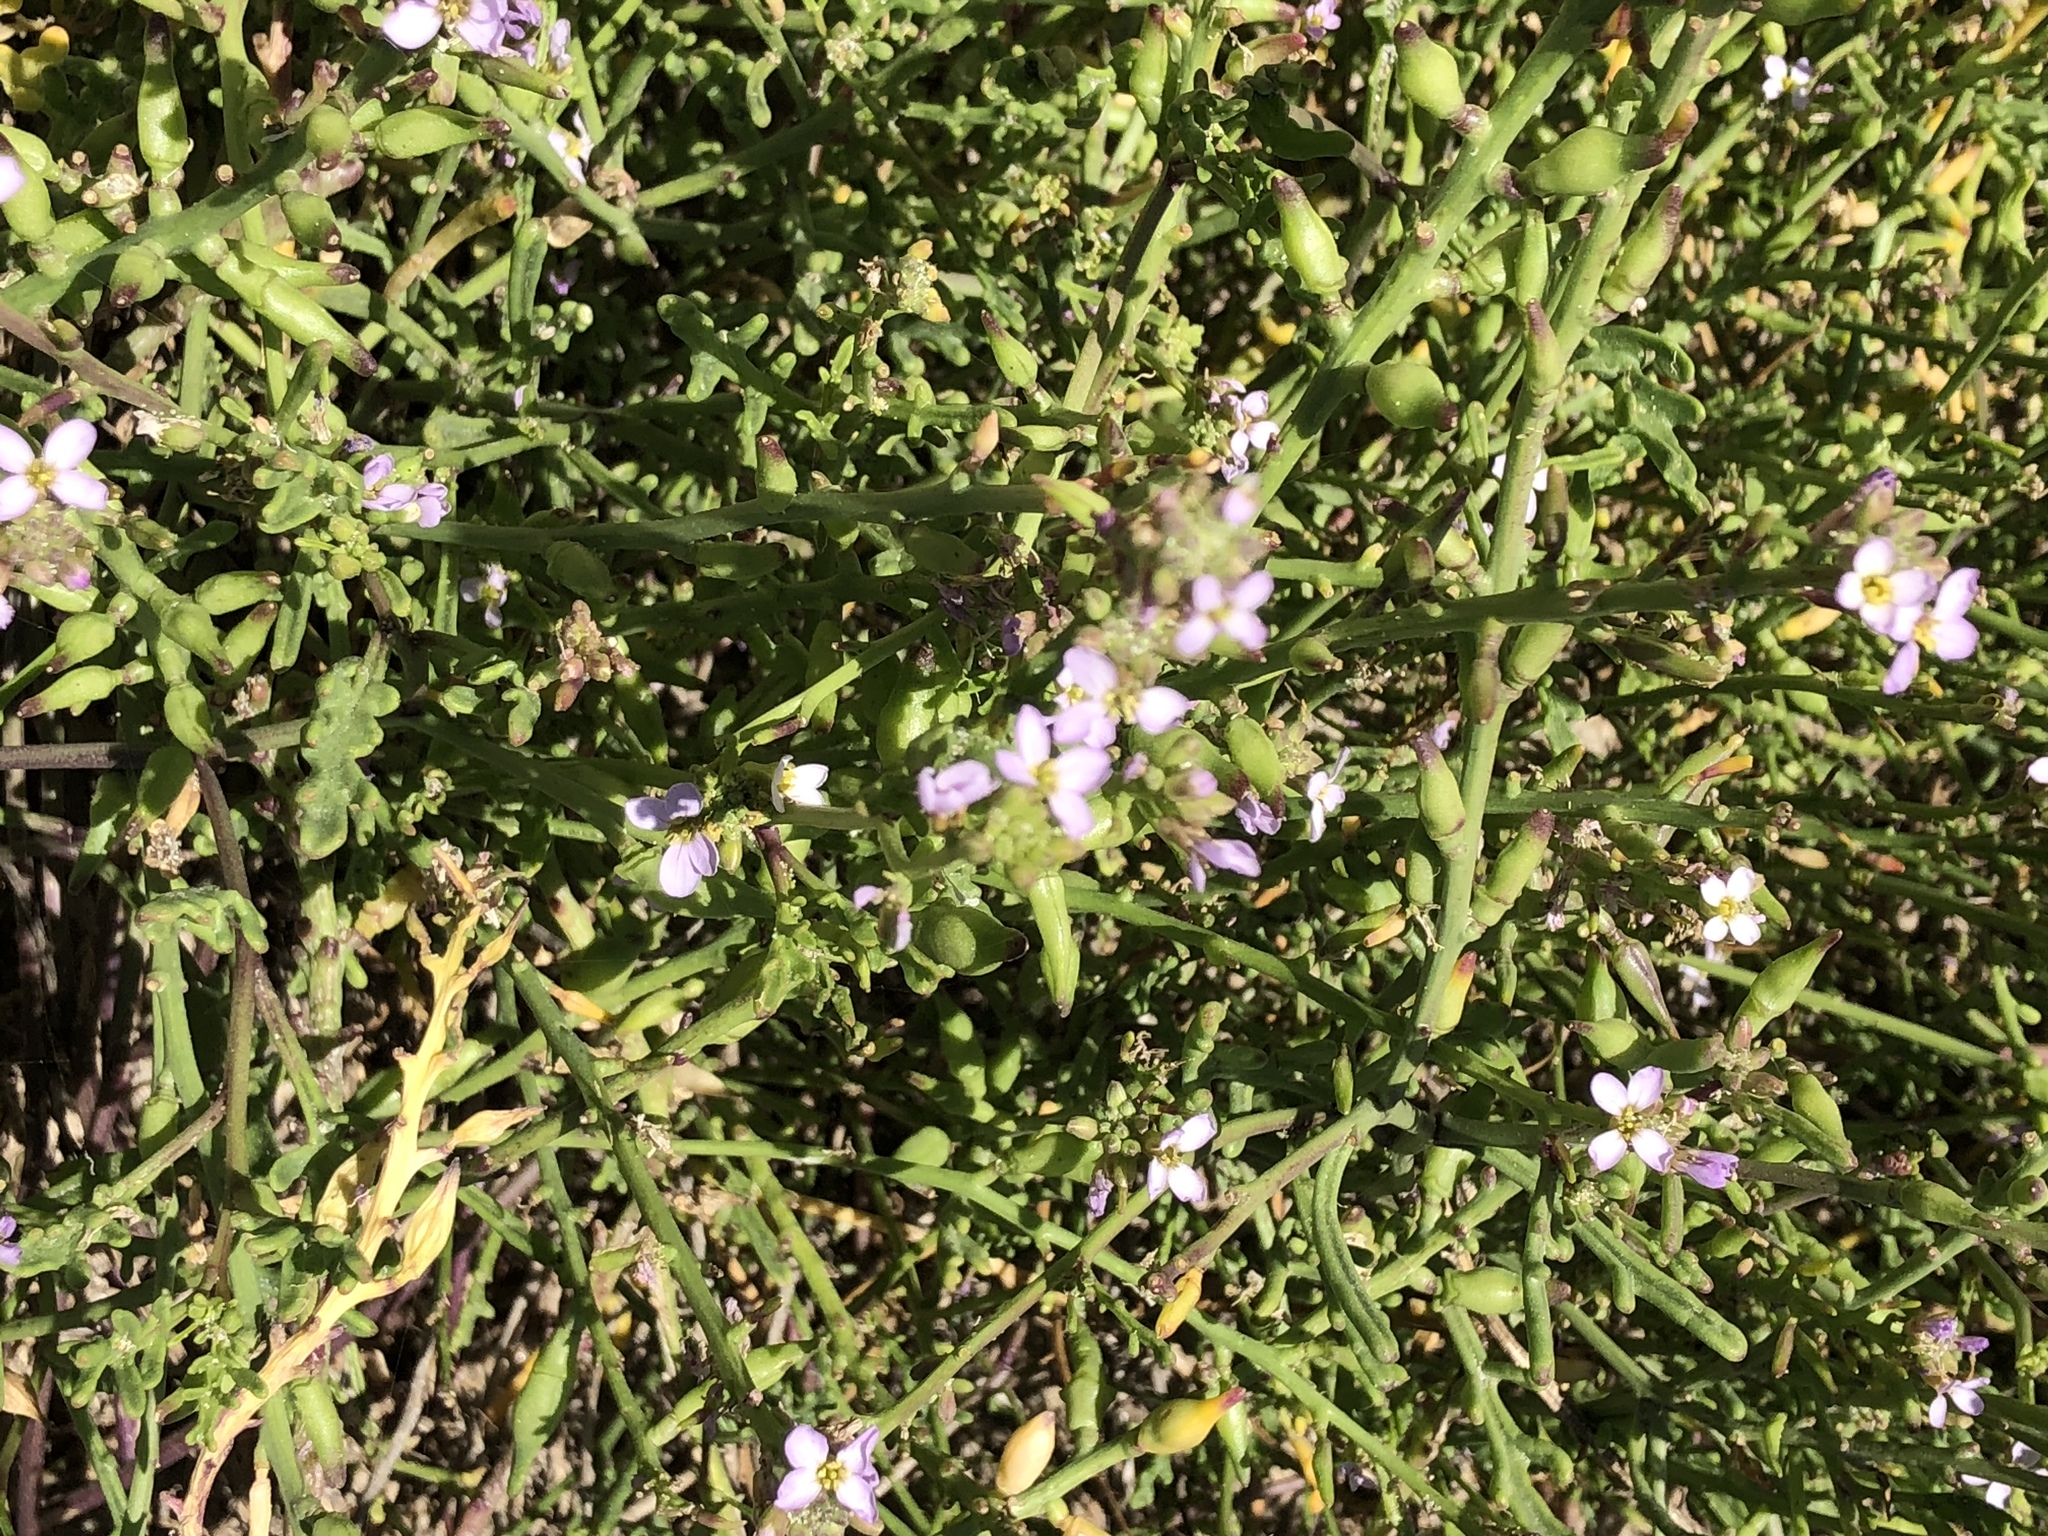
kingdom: Plantae
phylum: Tracheophyta
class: Magnoliopsida
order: Brassicales
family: Brassicaceae
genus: Cakile
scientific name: Cakile maritima
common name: Sea rocket
